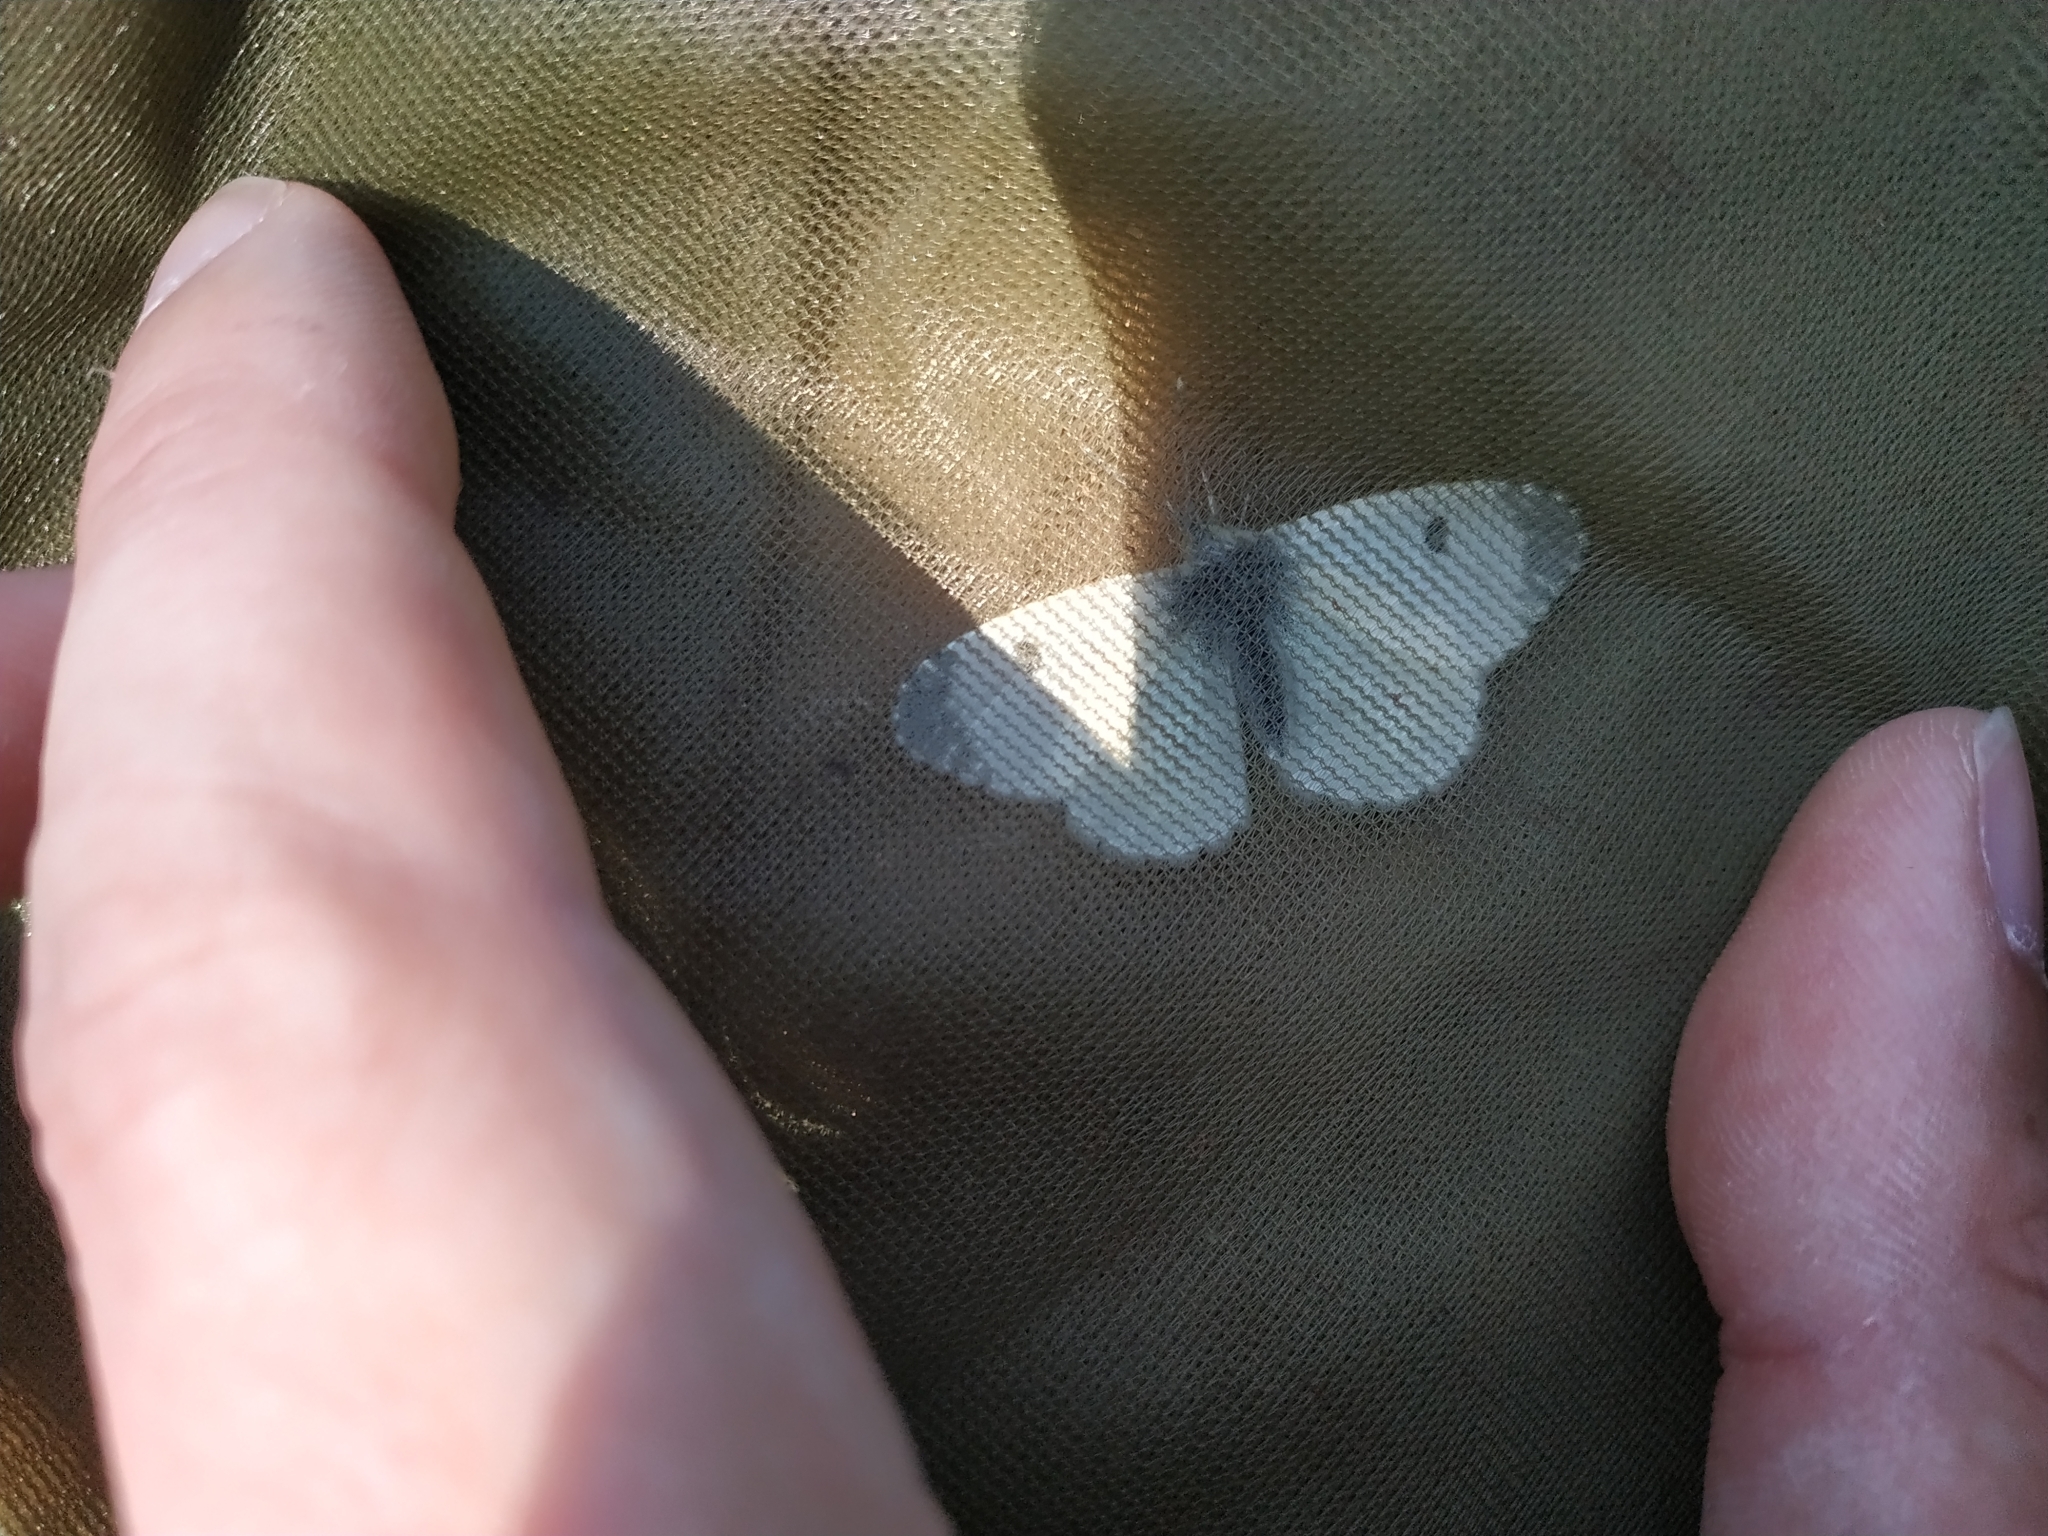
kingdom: Animalia
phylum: Arthropoda
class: Insecta
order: Lepidoptera
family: Pieridae
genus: Anthocharis
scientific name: Anthocharis cardamines
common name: Orange-tip
